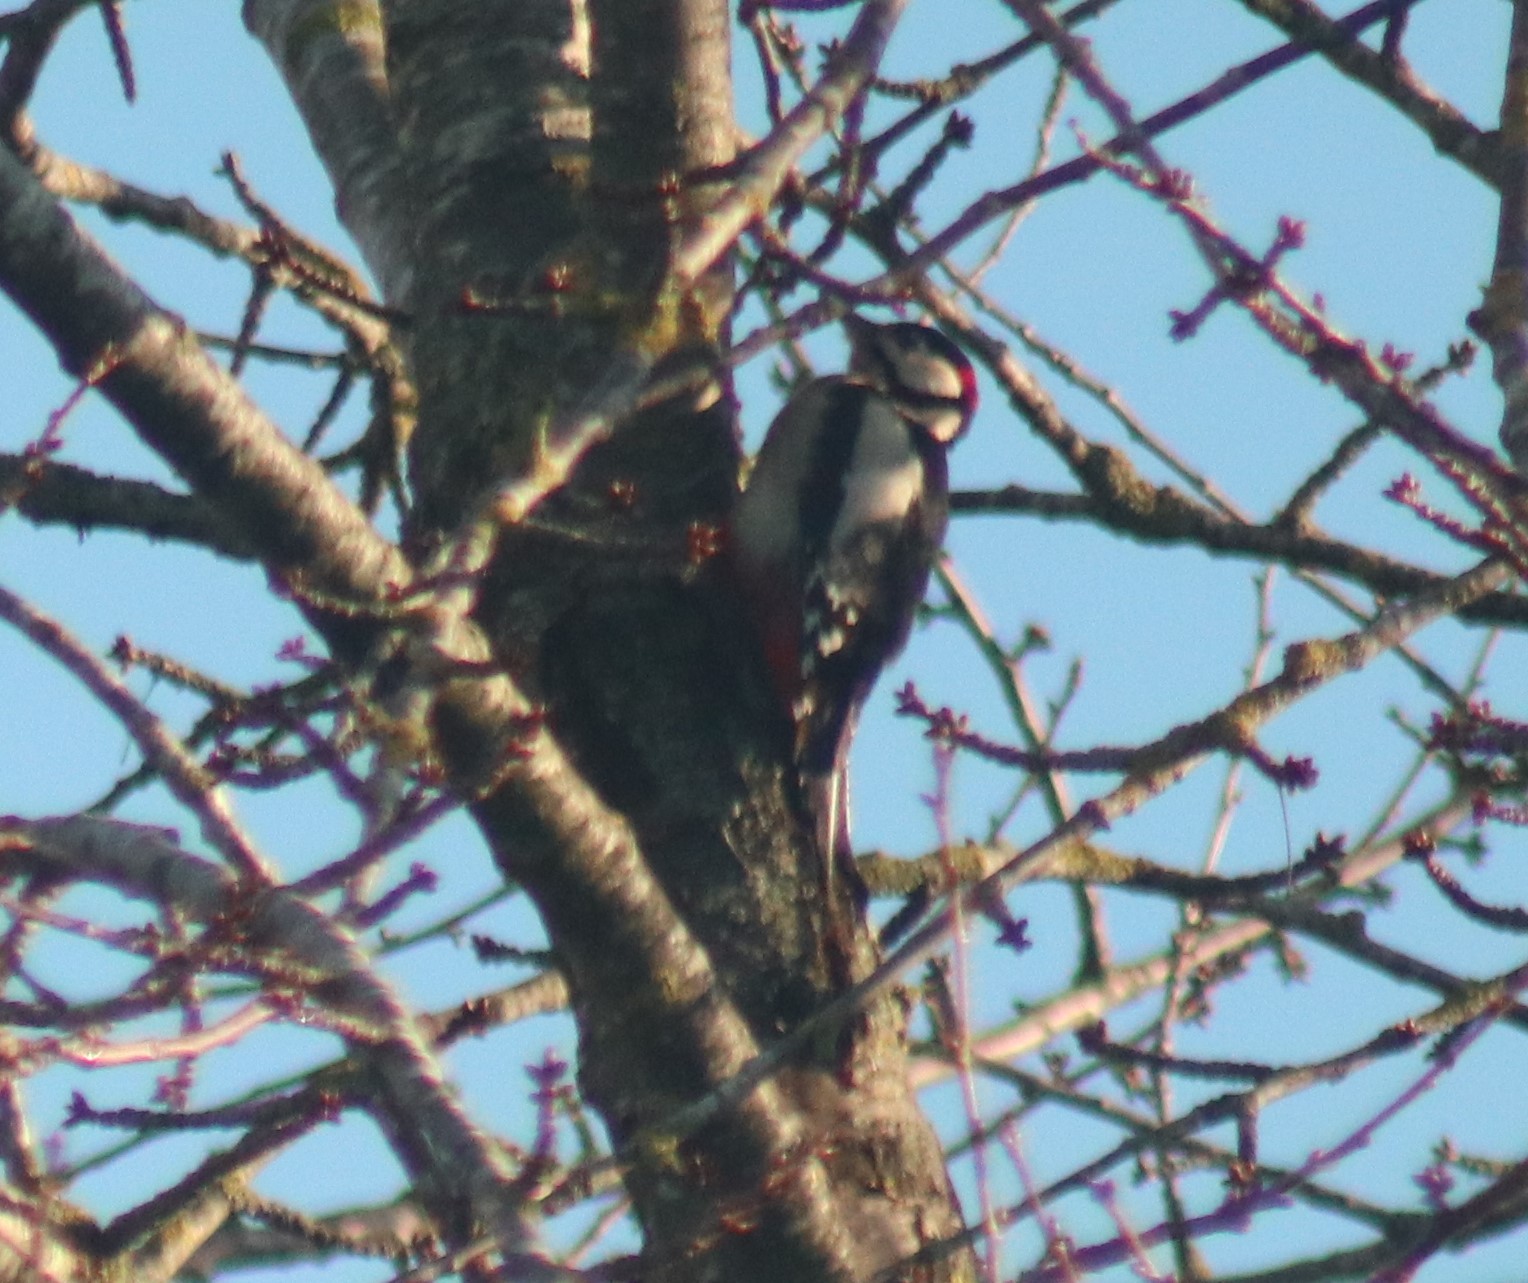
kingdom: Animalia
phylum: Chordata
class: Aves
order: Piciformes
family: Picidae
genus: Dendrocopos
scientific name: Dendrocopos major
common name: Great spotted woodpecker
